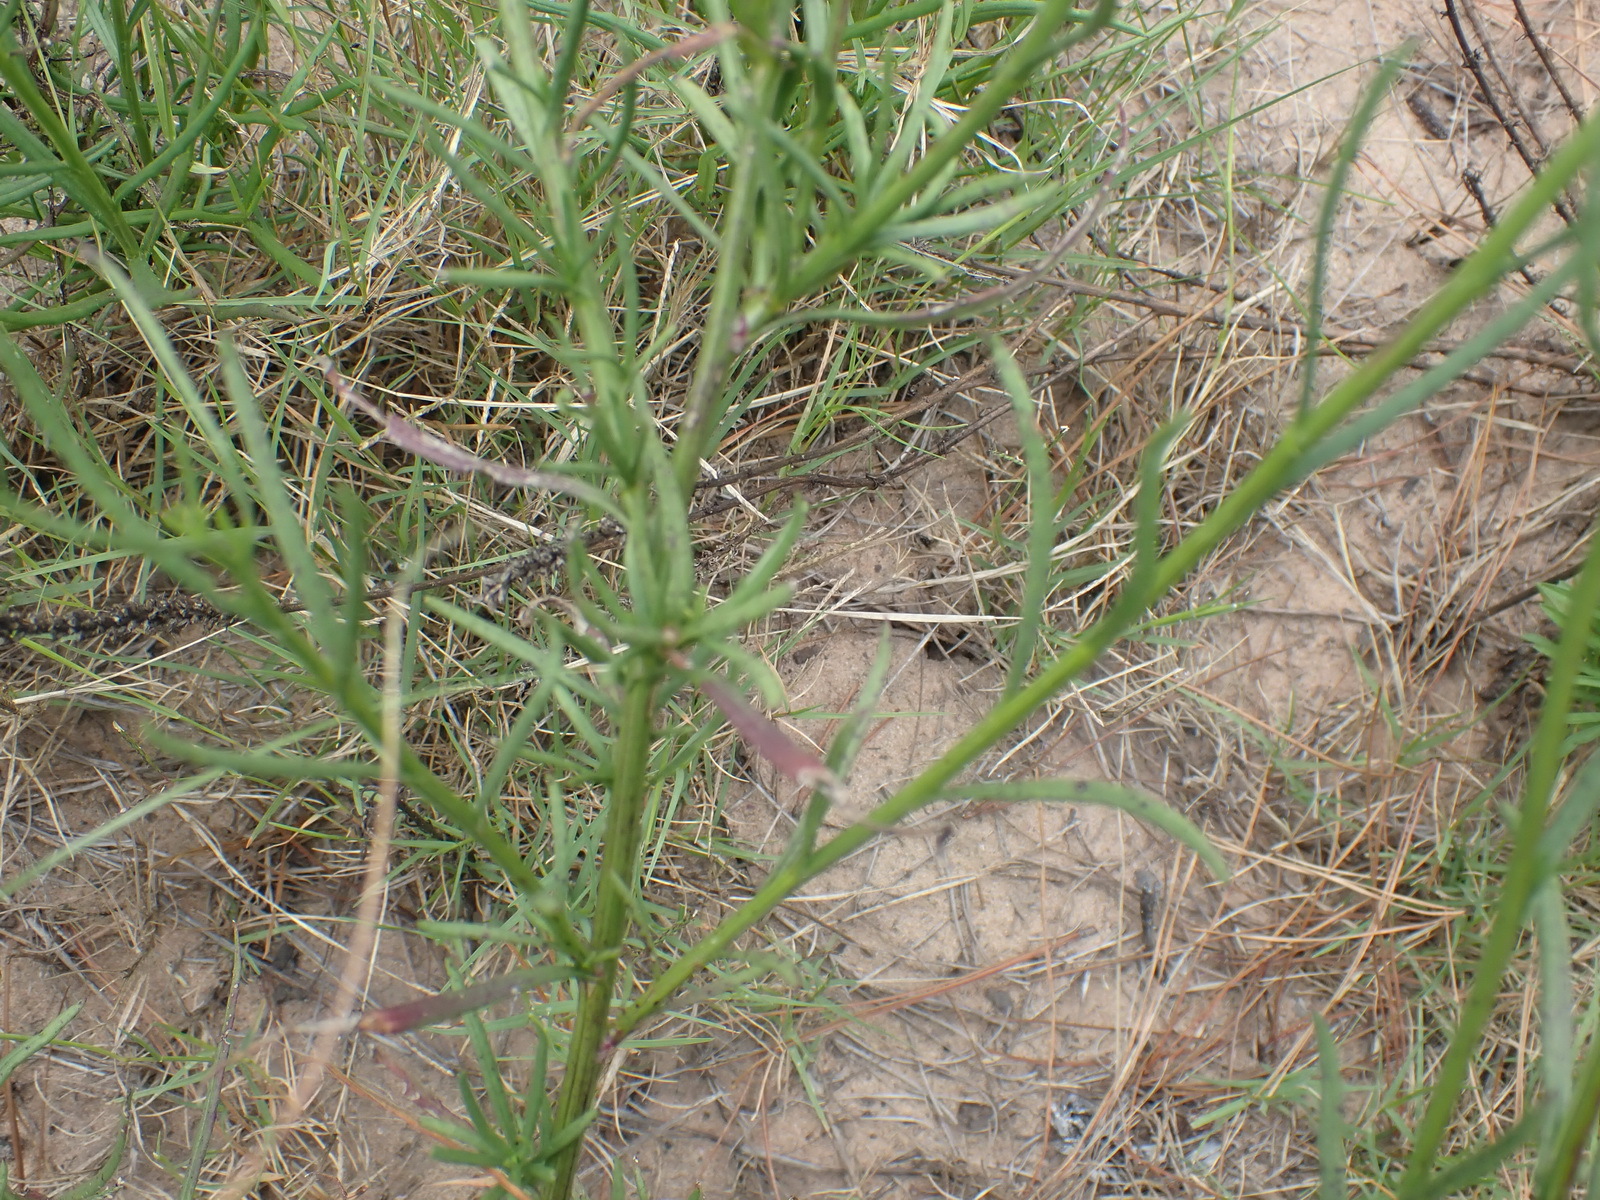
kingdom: Plantae
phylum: Tracheophyta
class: Magnoliopsida
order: Asterales
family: Asteraceae
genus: Senecio
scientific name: Senecio burchellii
